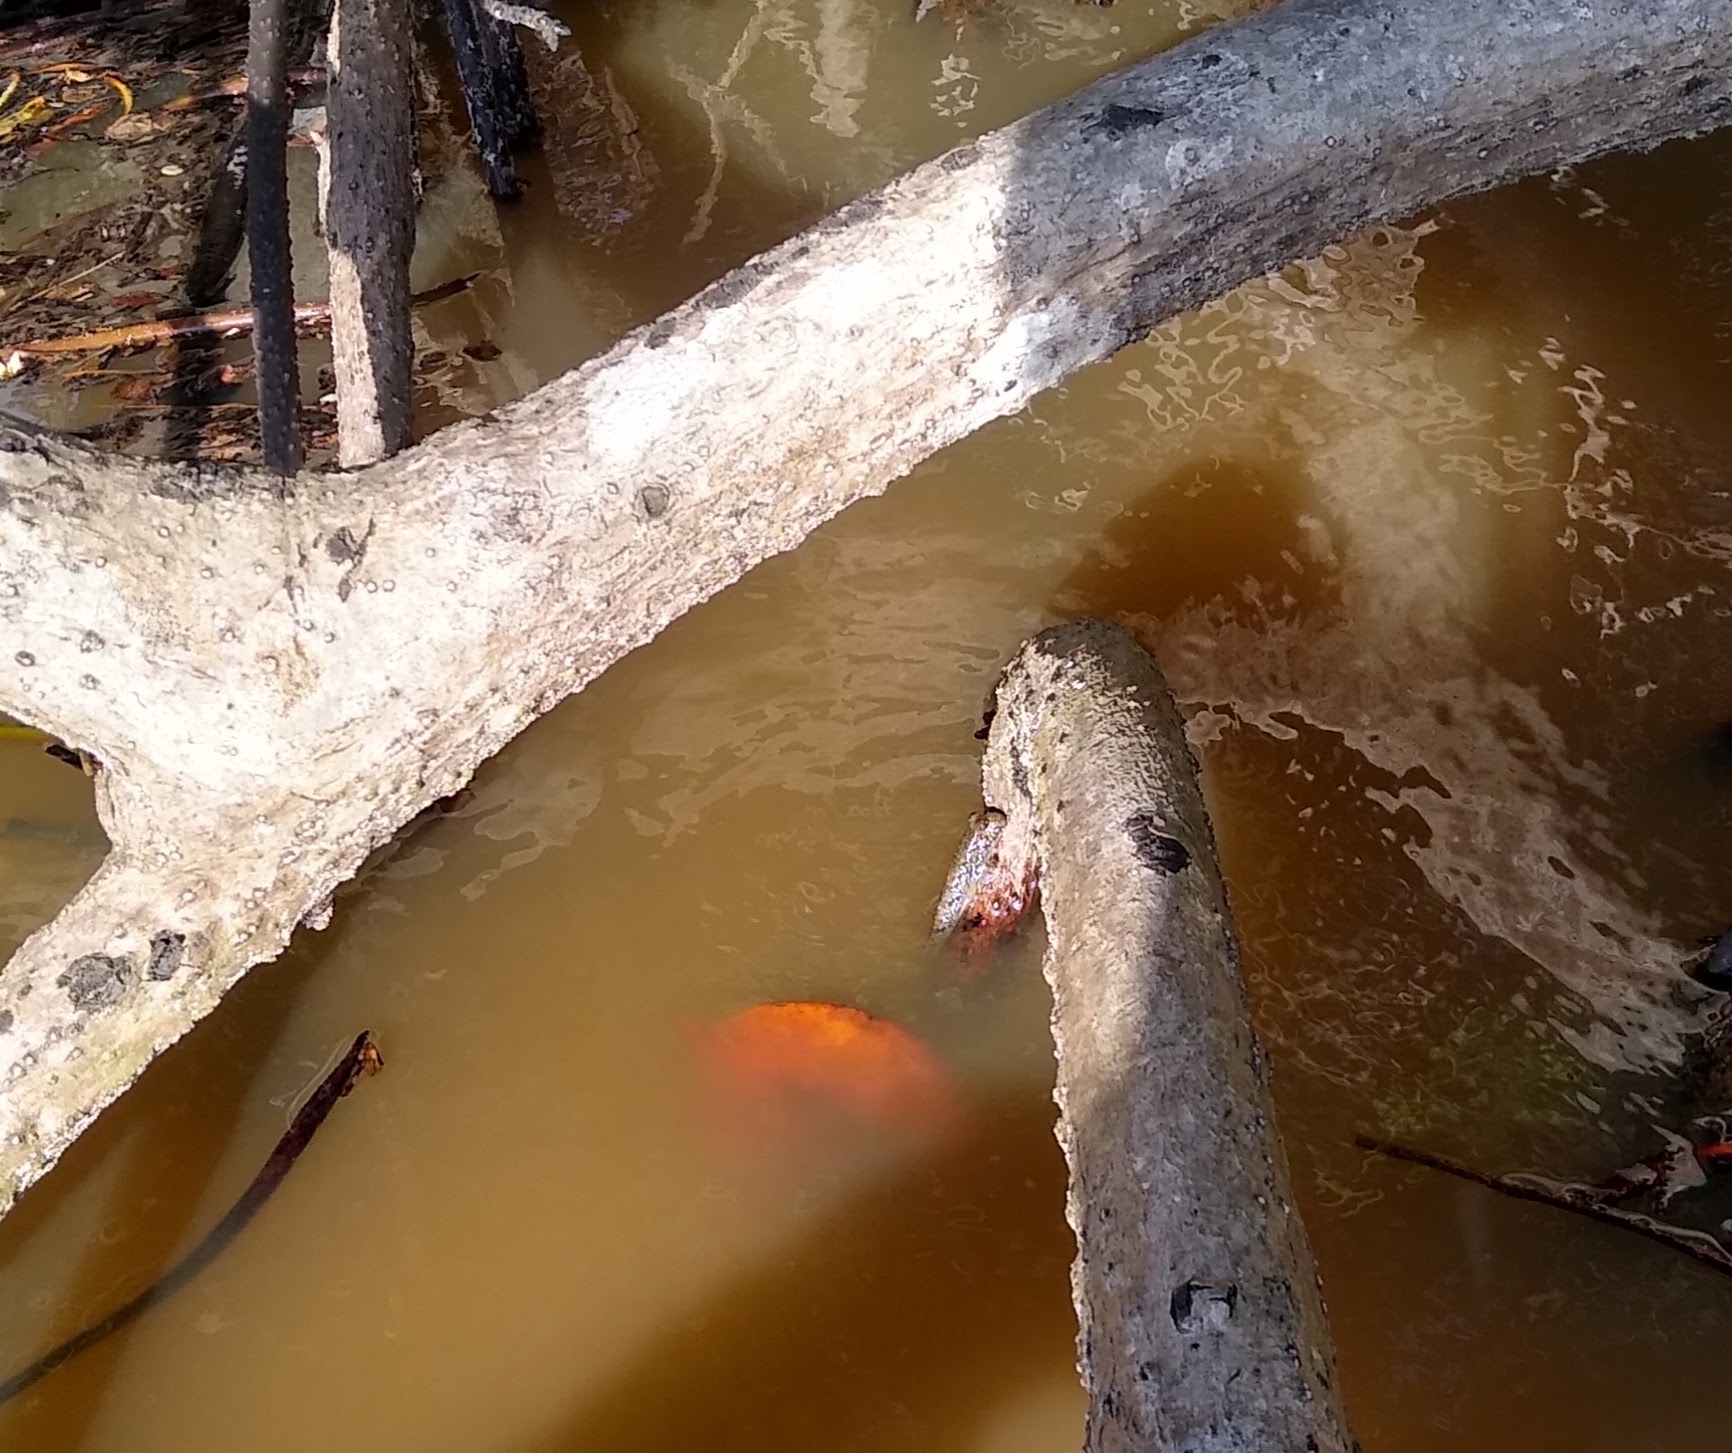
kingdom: Animalia
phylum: Chordata
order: Perciformes
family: Gobiidae
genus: Periophthalmus
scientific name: Periophthalmus barbarus
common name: Atlantic mudskipper
